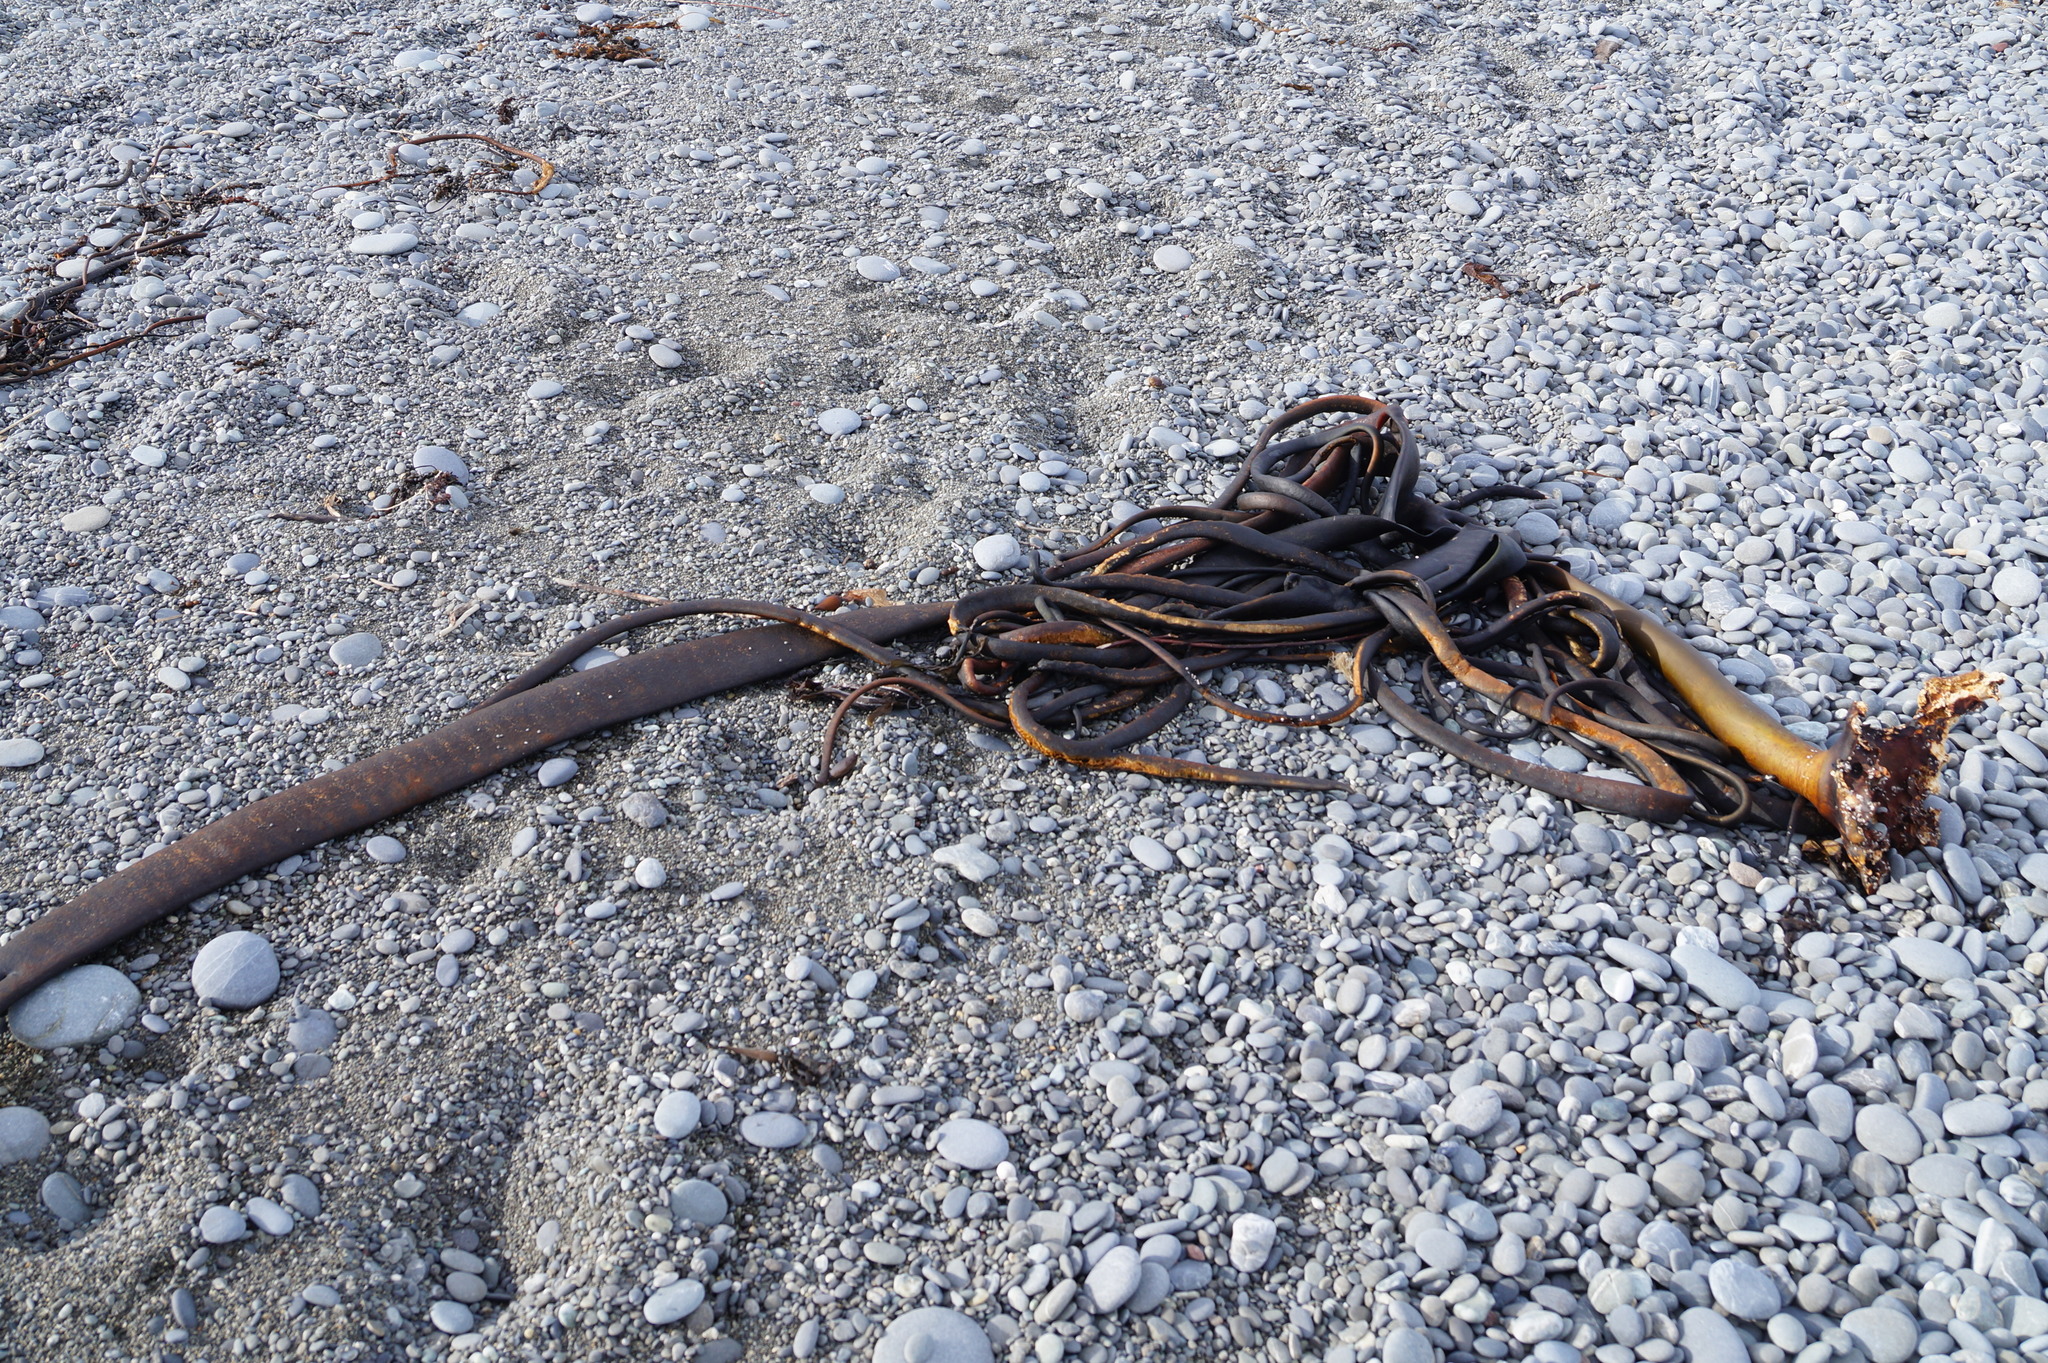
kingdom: Chromista
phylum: Ochrophyta
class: Phaeophyceae
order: Fucales
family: Durvillaeaceae
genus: Durvillaea
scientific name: Durvillaea antarctica
